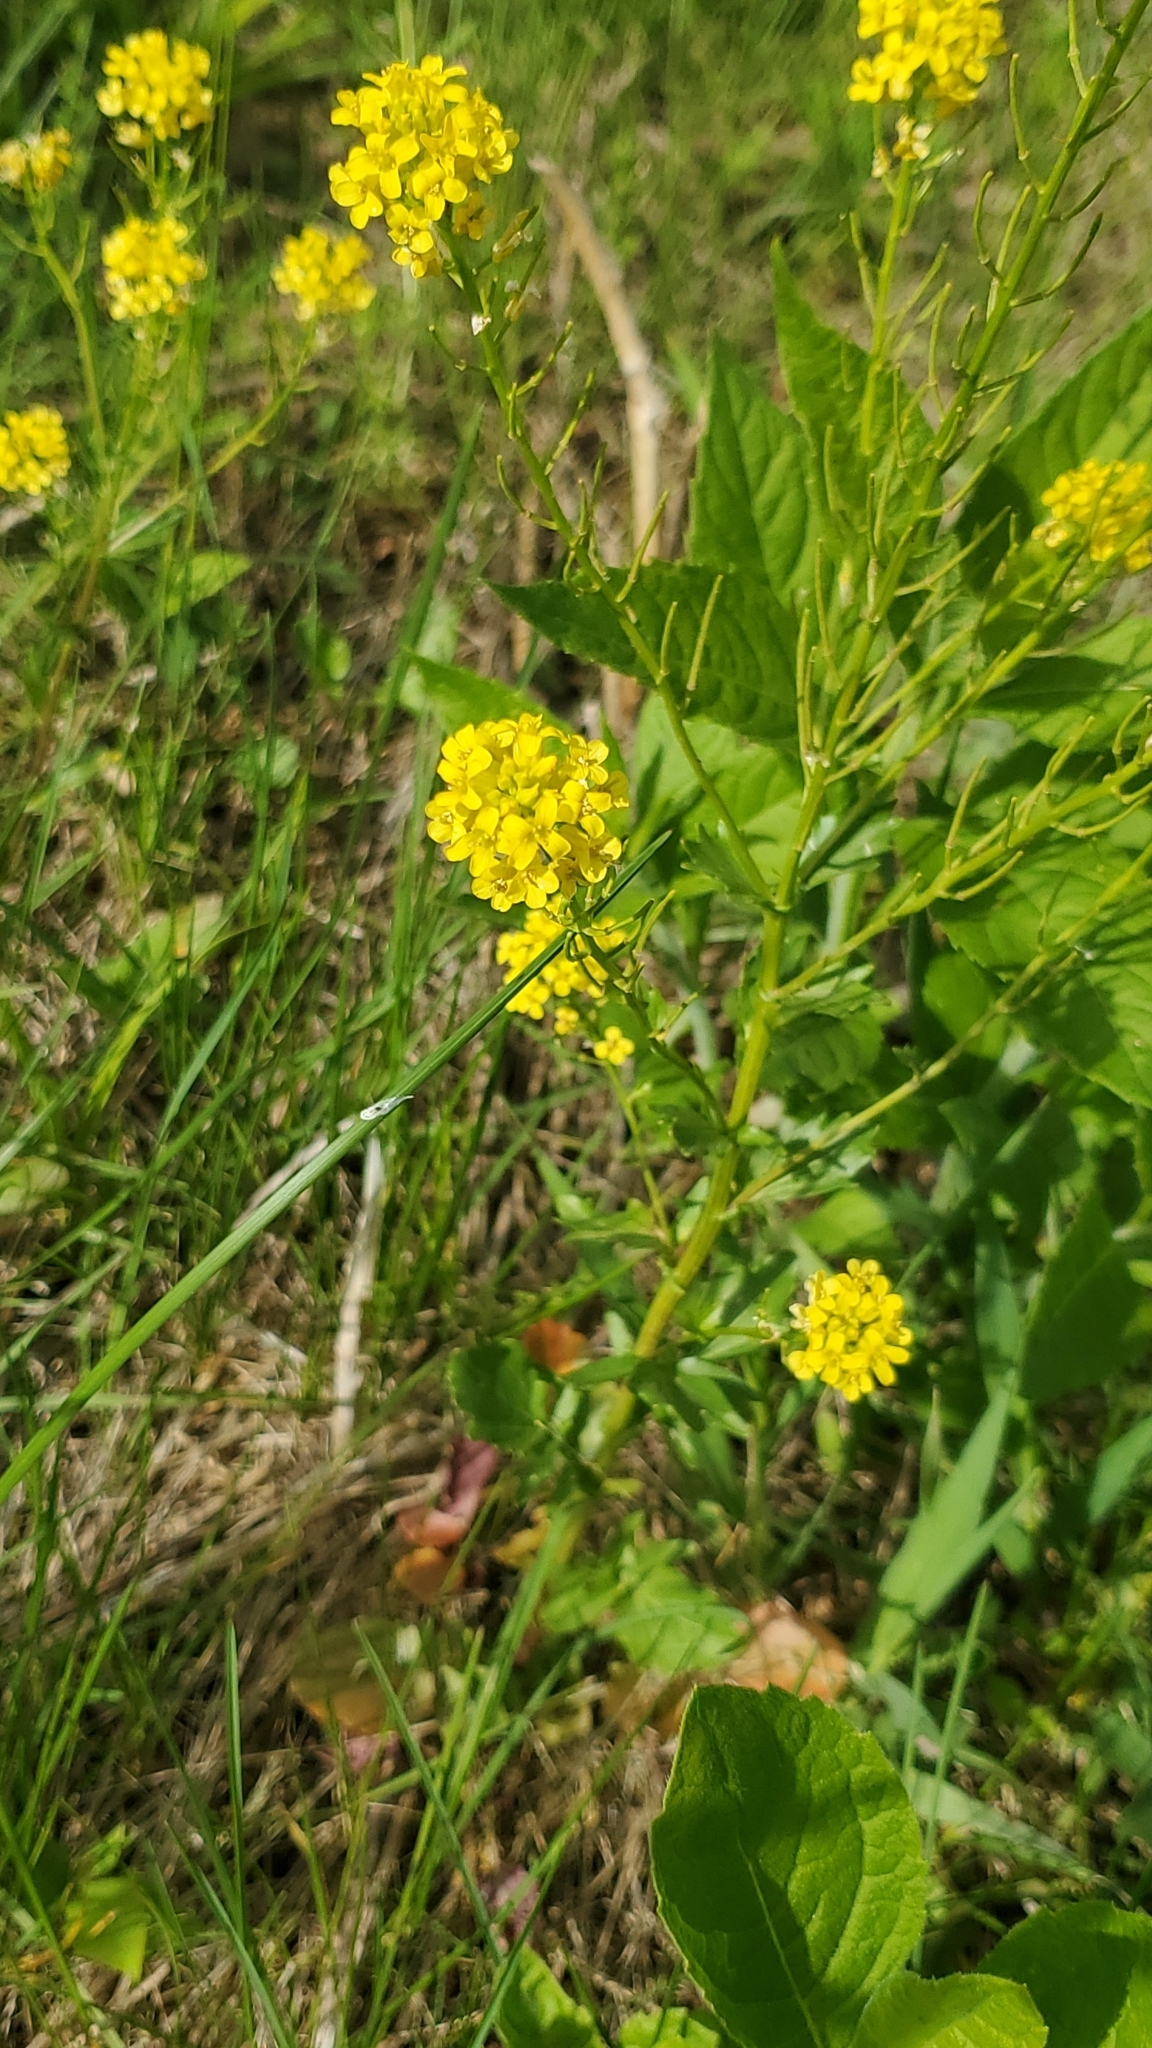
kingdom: Plantae
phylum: Tracheophyta
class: Magnoliopsida
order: Brassicales
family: Brassicaceae
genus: Barbarea
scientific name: Barbarea vulgaris
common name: Cressy-greens
